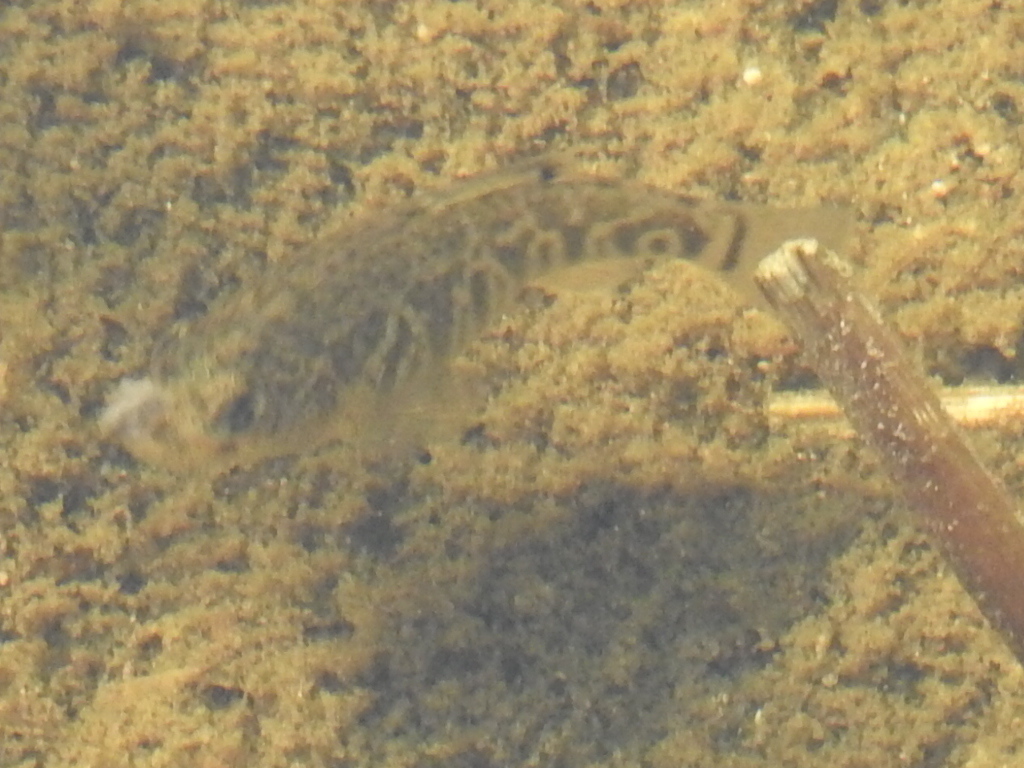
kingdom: Animalia
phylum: Chordata
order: Cyprinodontiformes
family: Cyprinodontidae
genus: Cyprinodon
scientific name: Cyprinodon variegatus
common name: Sheepshead minnow
